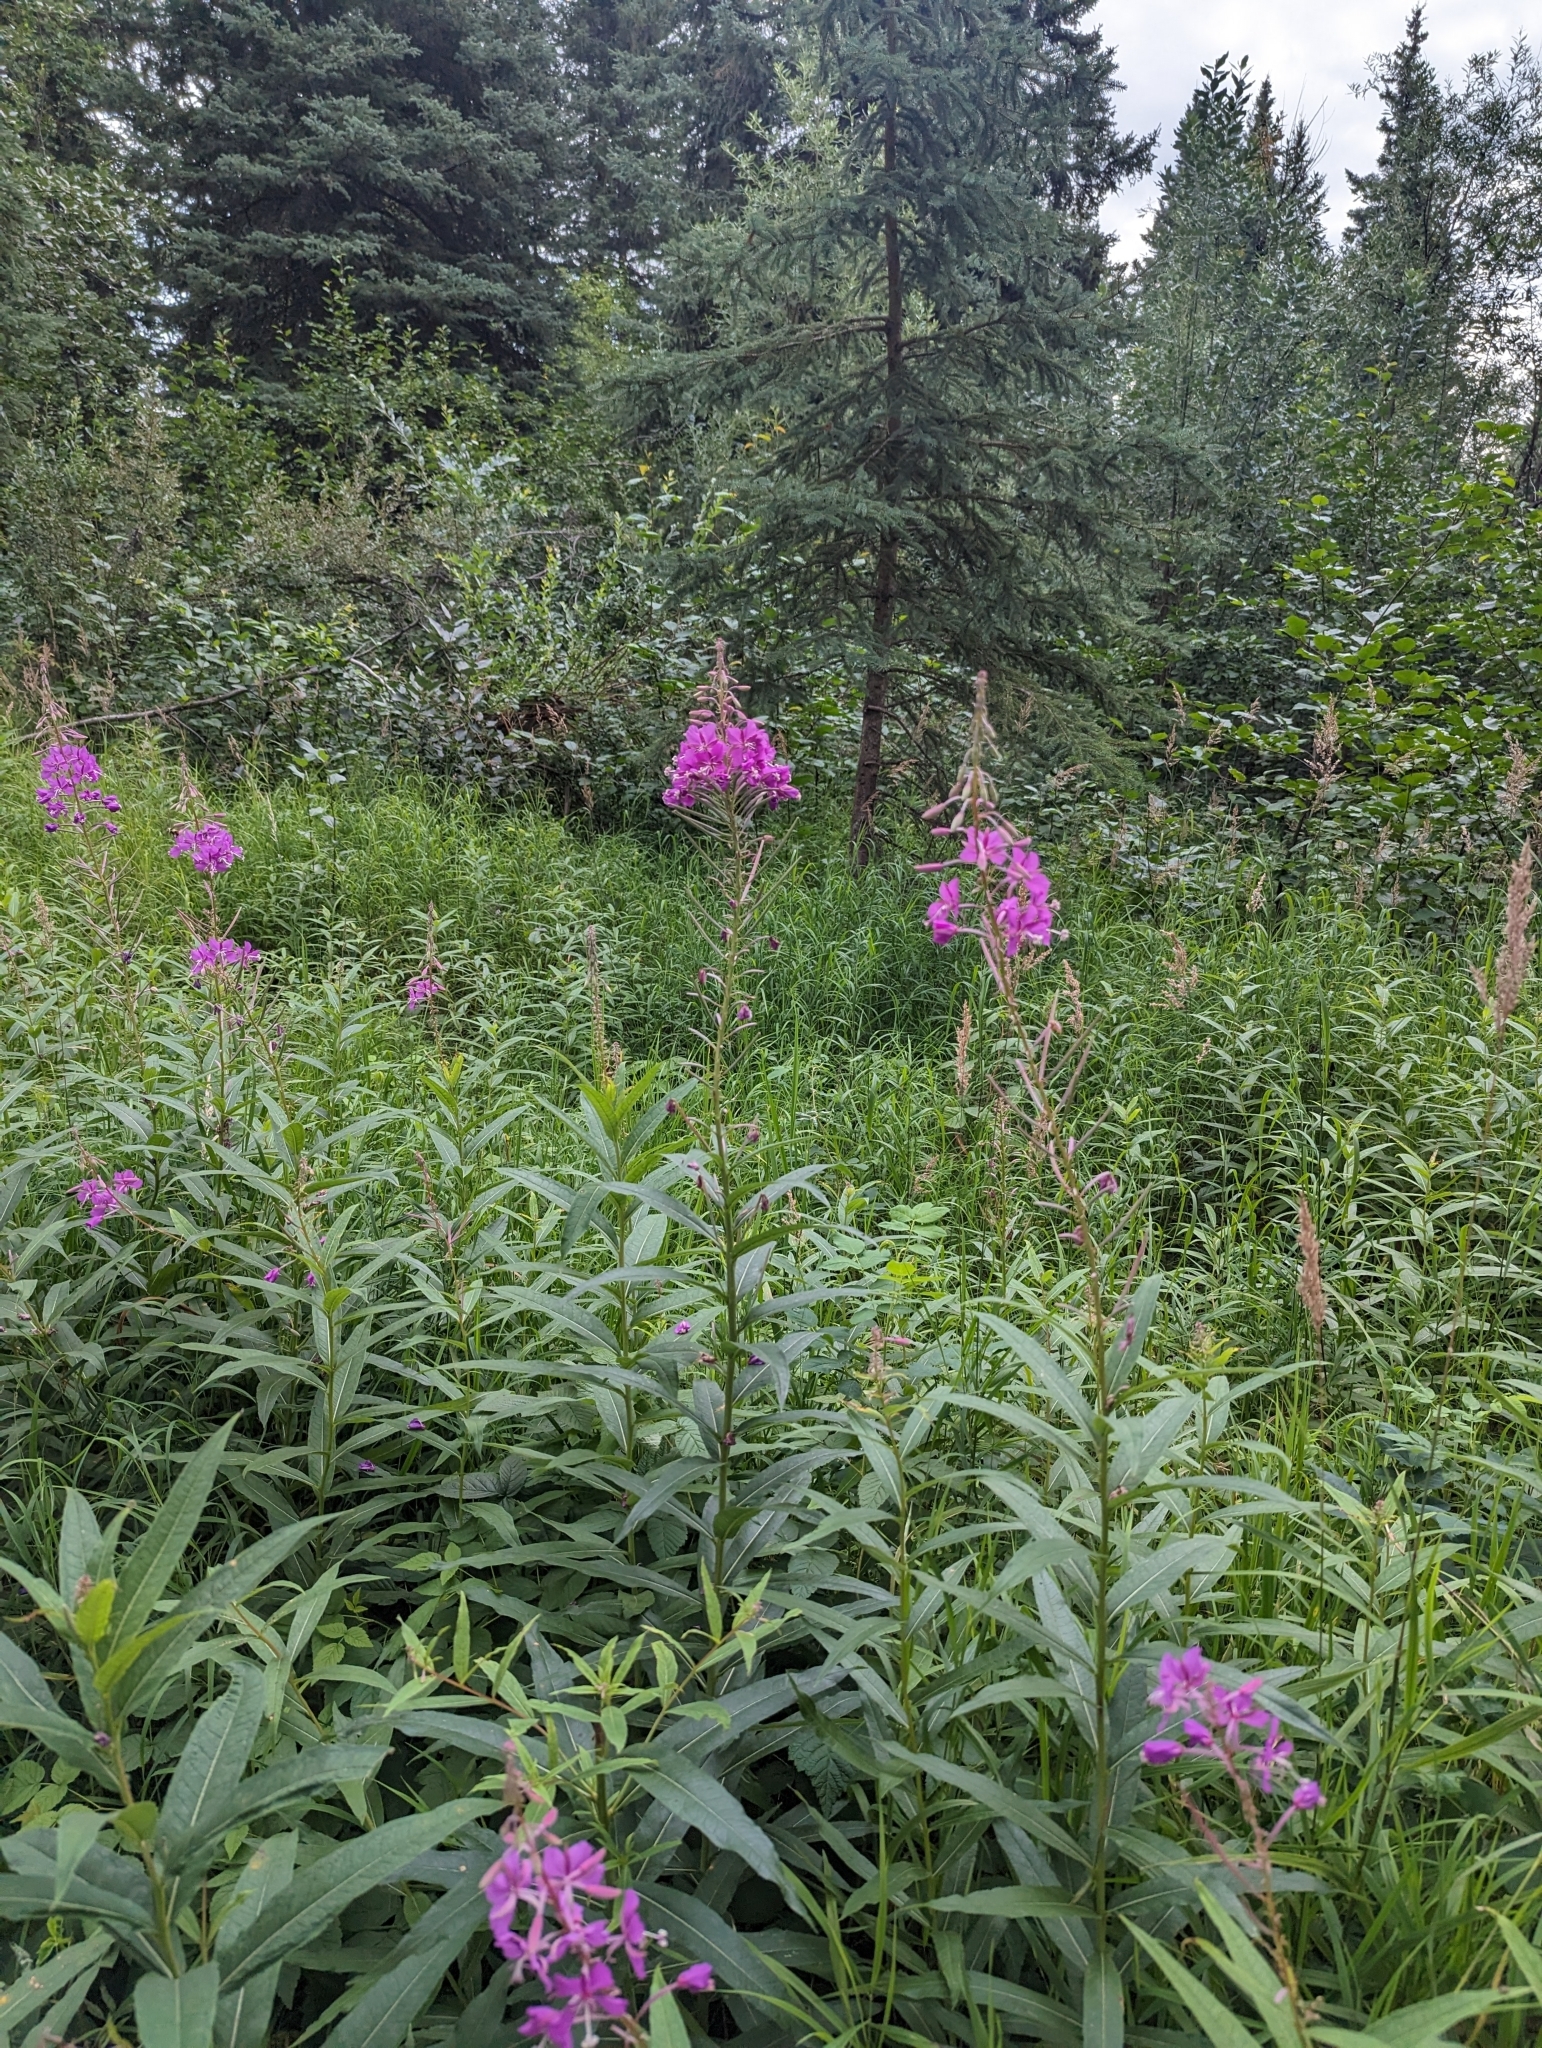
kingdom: Plantae
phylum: Tracheophyta
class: Magnoliopsida
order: Myrtales
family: Onagraceae
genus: Chamaenerion
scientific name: Chamaenerion angustifolium
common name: Fireweed
